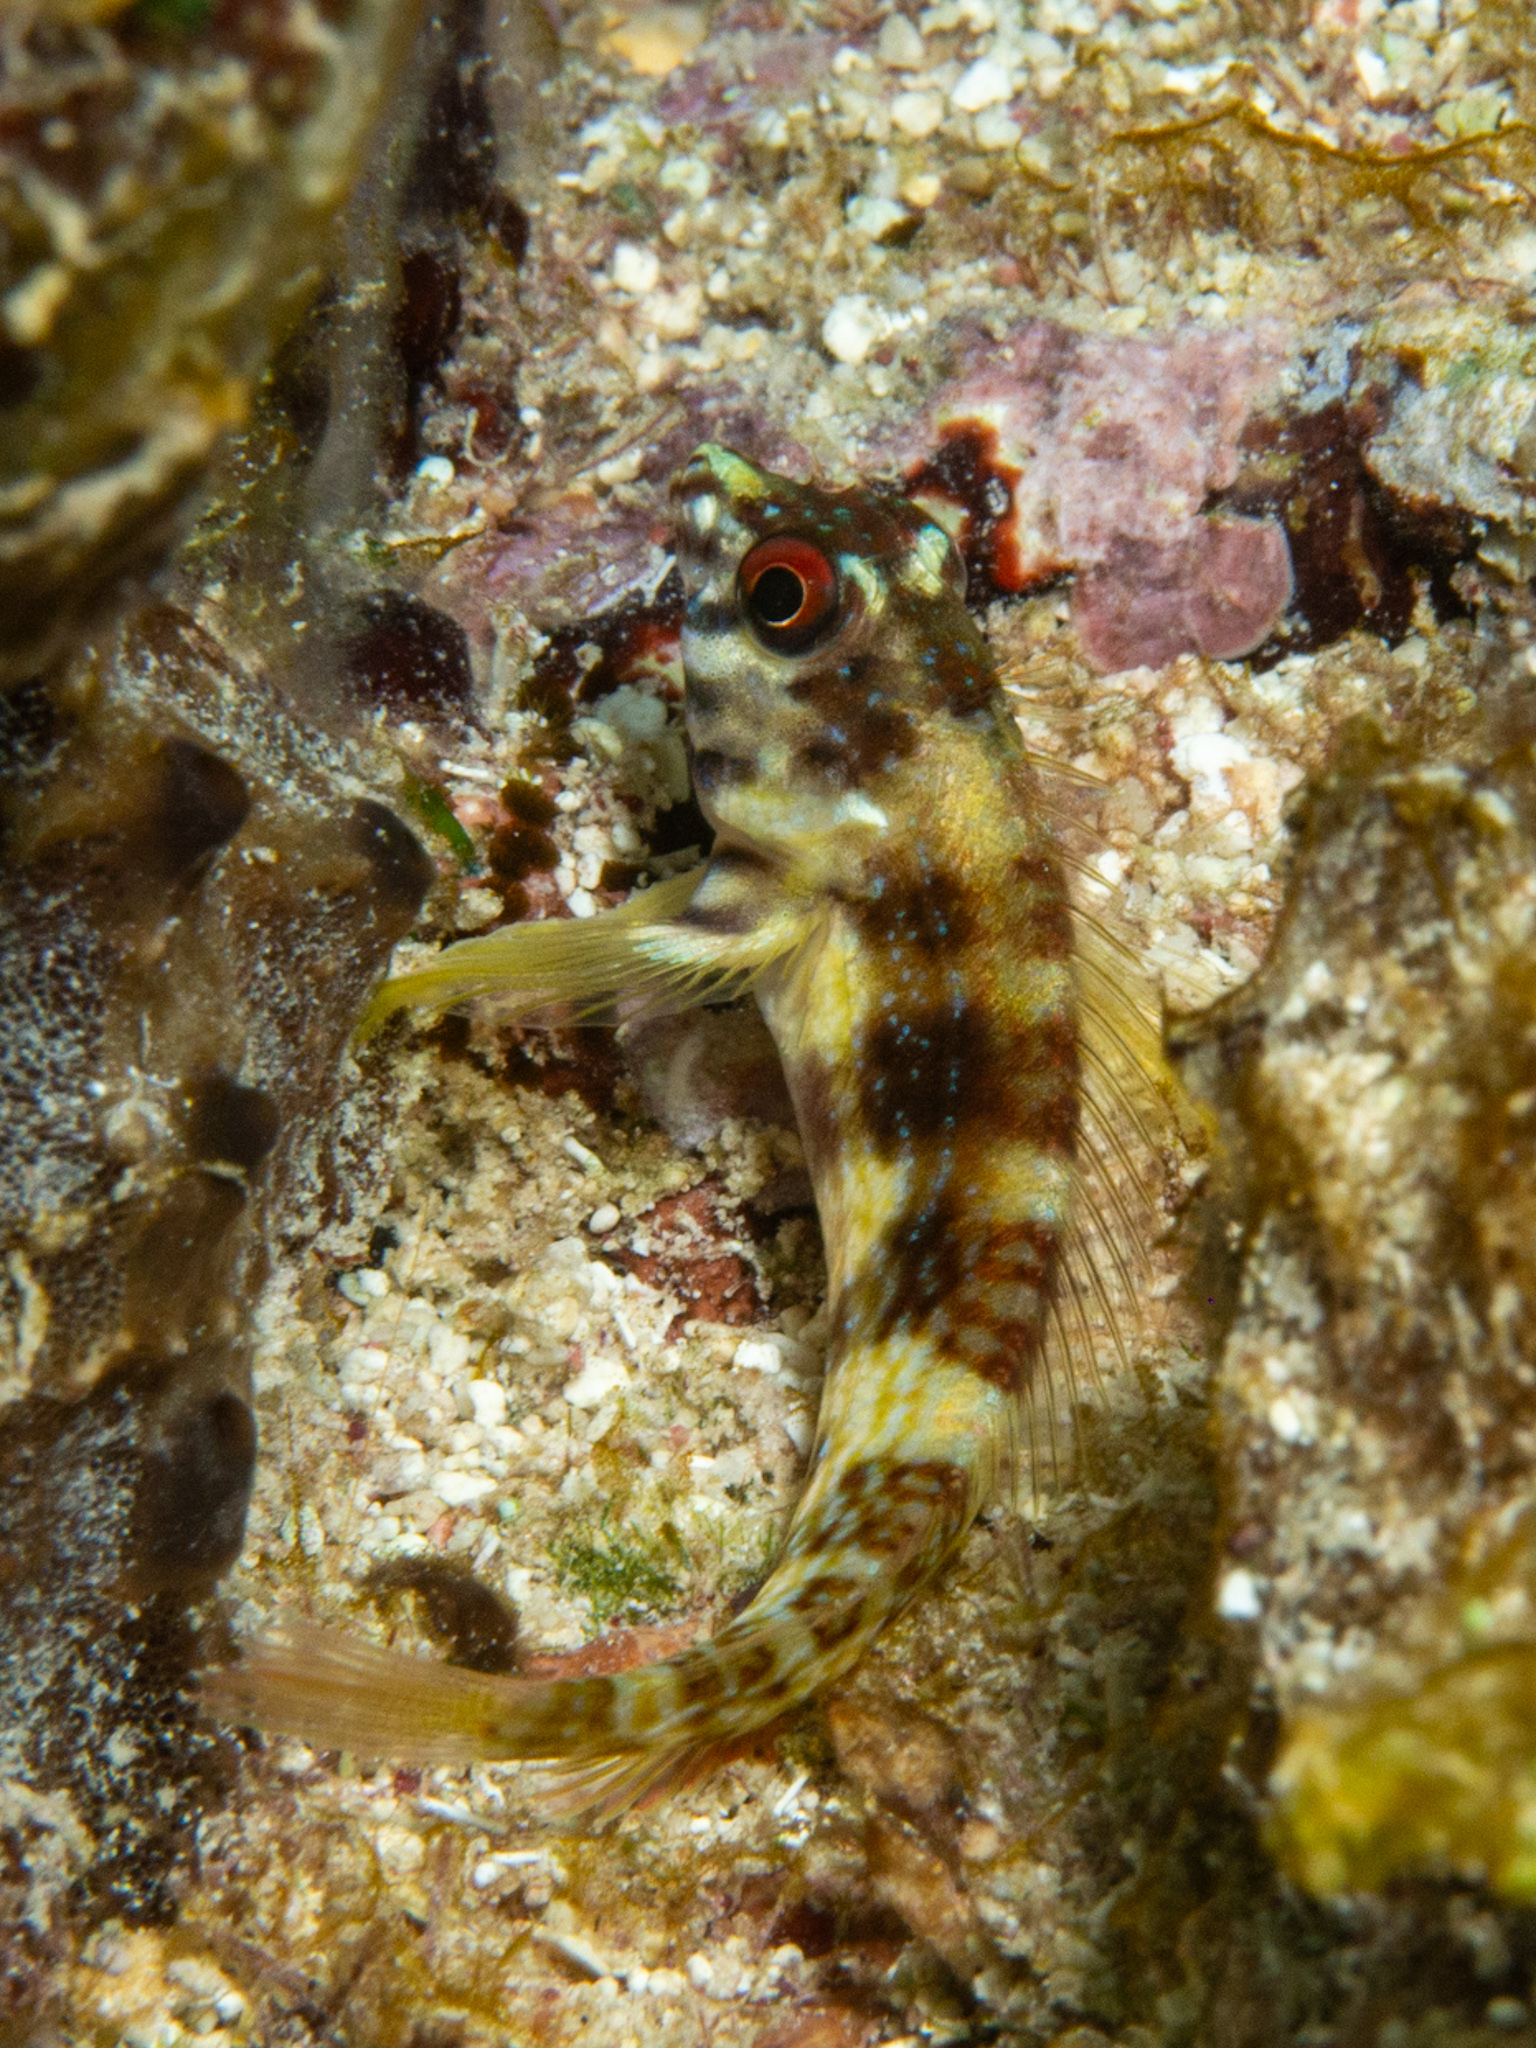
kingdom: Animalia
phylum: Chordata
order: Perciformes
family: Labrisomidae
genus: Malacoctenus
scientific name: Malacoctenus triangulatus
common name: Saddled blenny
